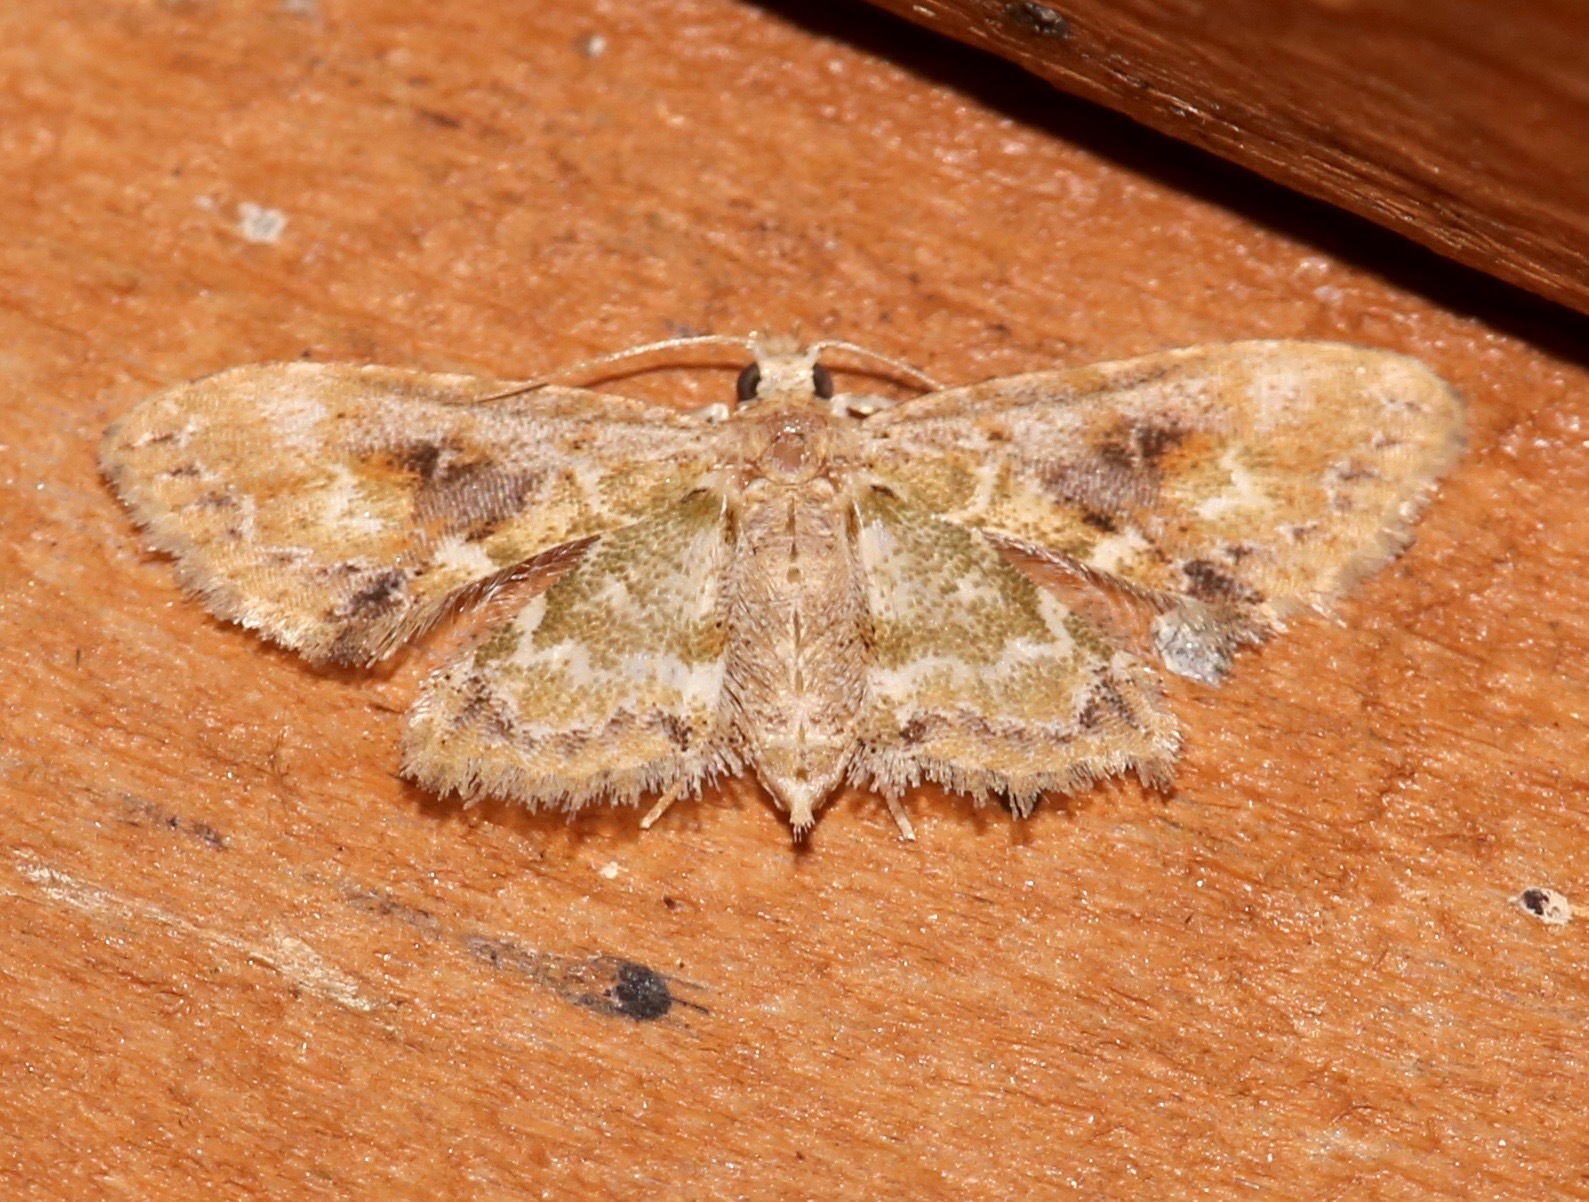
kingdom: Animalia
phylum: Arthropoda
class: Insecta
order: Lepidoptera
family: Erebidae
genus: Sigela
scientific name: Sigela sordes
